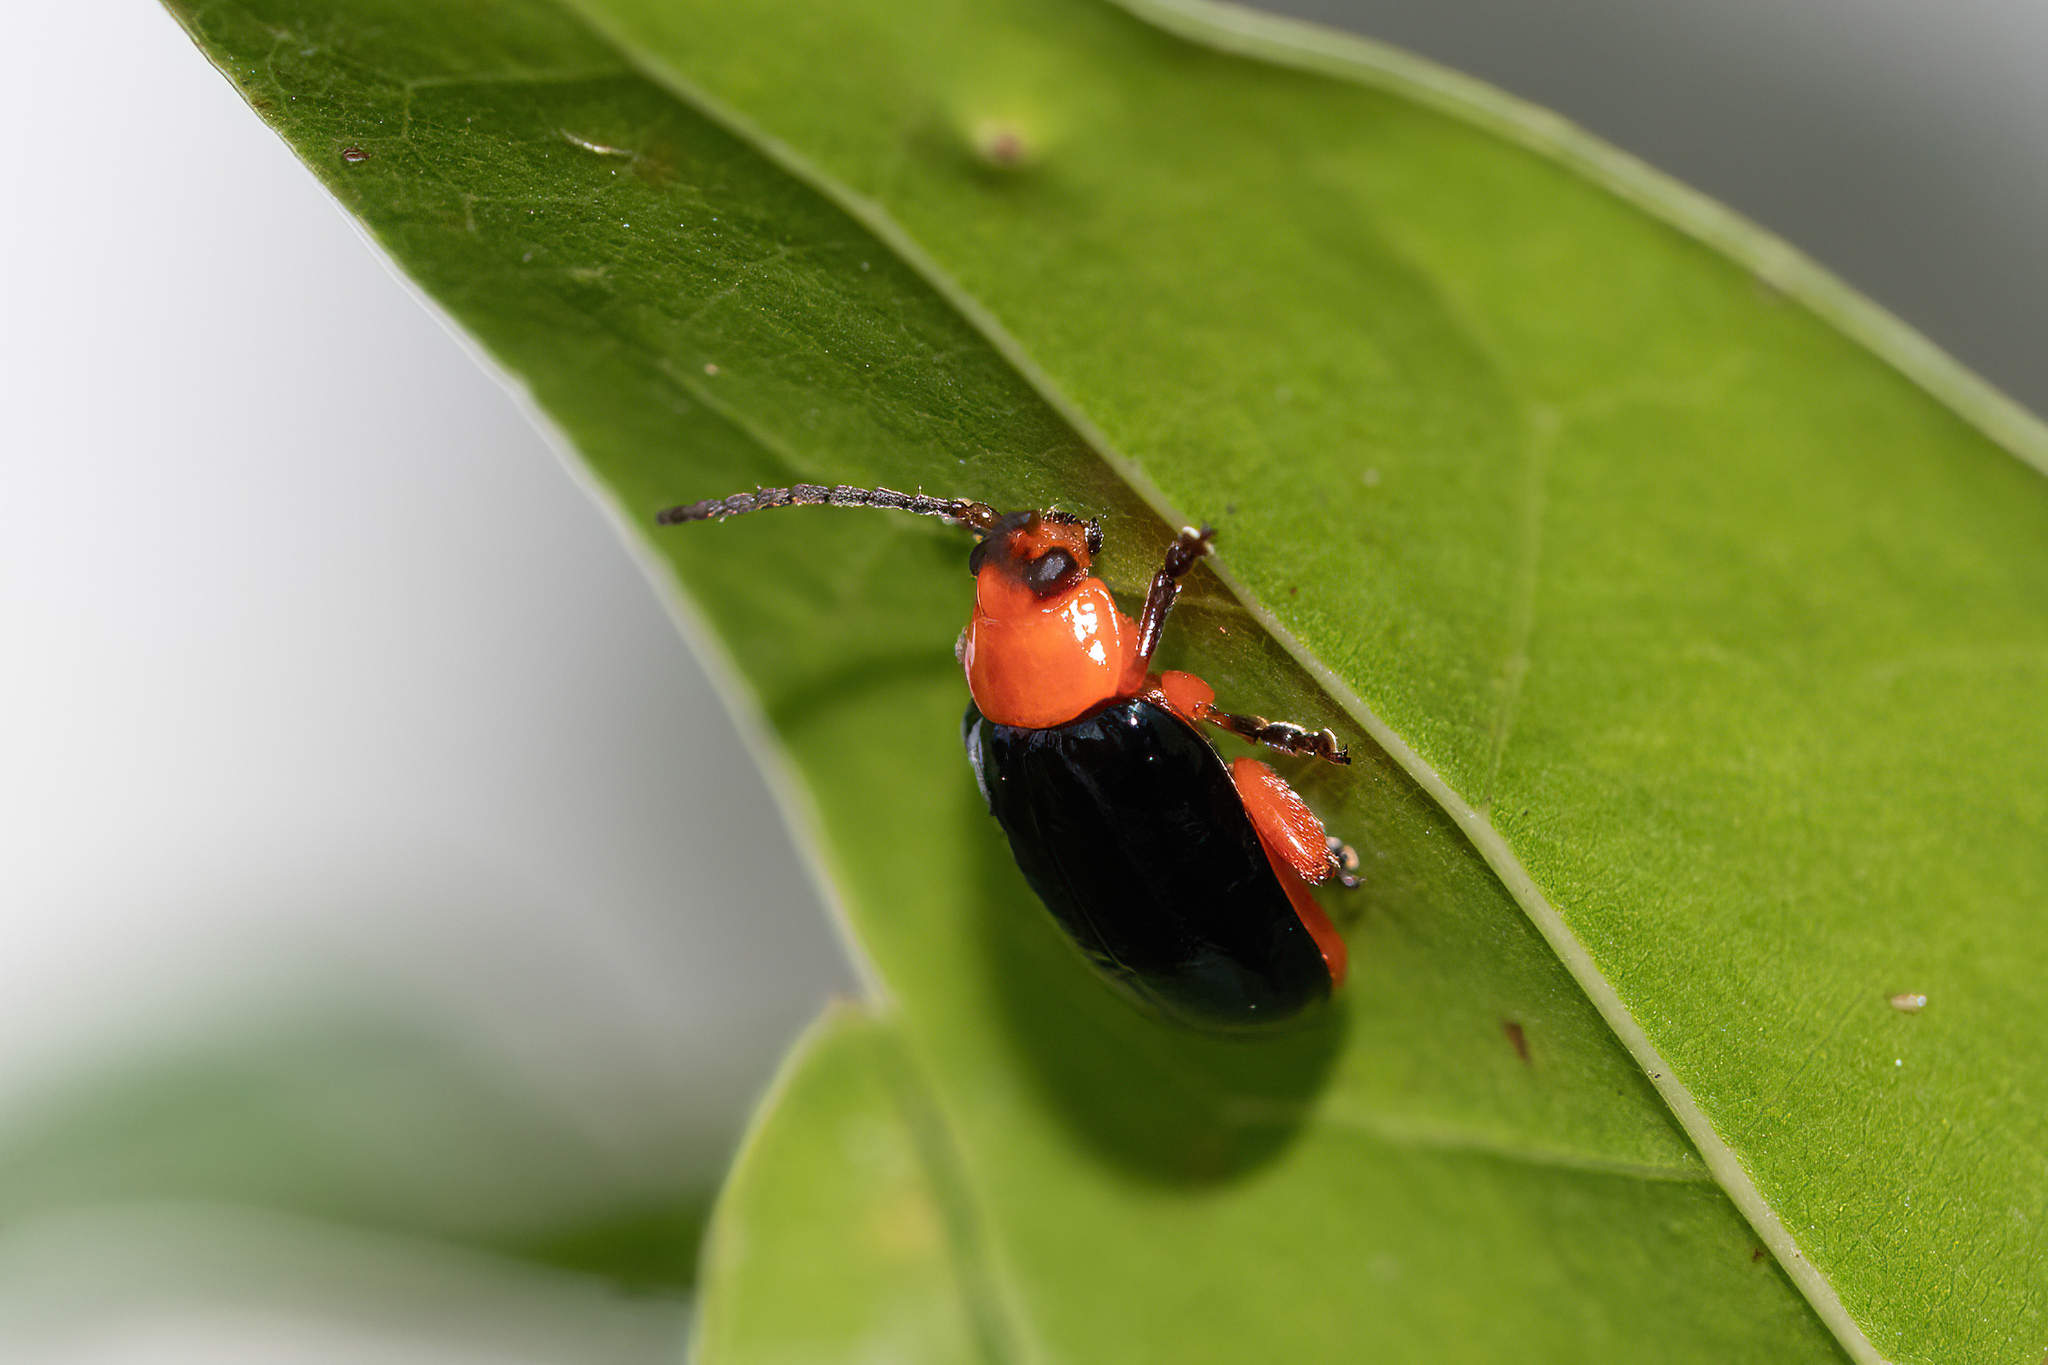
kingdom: Animalia
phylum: Arthropoda
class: Insecta
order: Coleoptera
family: Chrysomelidae
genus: Asphaera
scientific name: Asphaera lustrans
